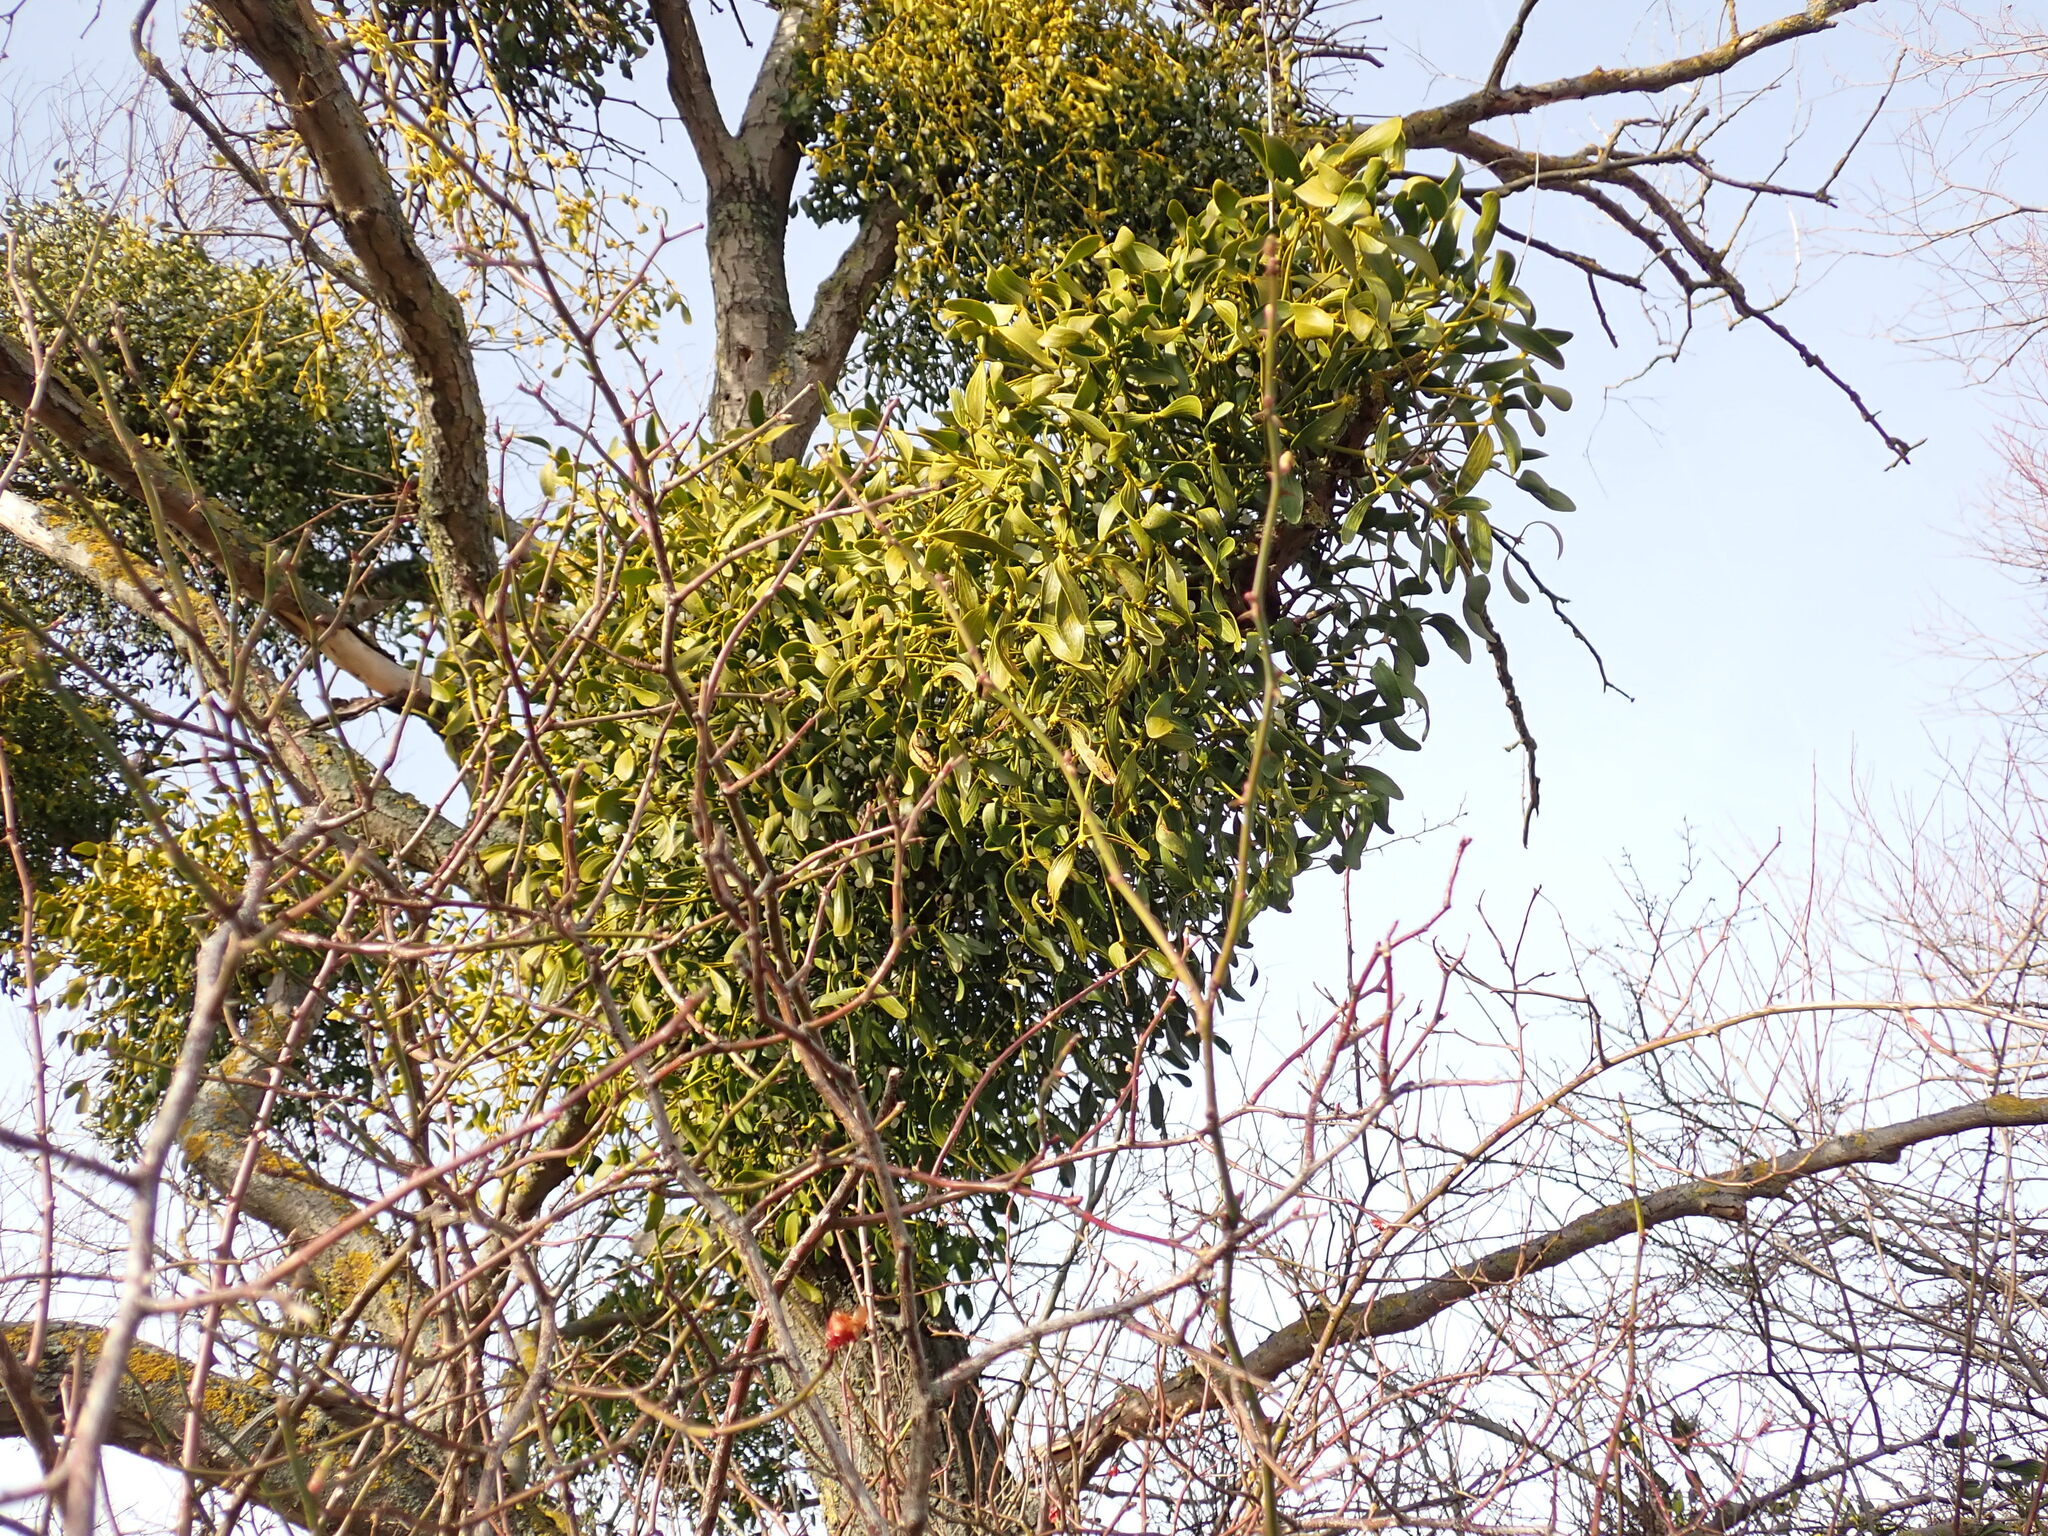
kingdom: Plantae
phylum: Tracheophyta
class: Magnoliopsida
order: Santalales
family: Viscaceae
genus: Viscum
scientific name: Viscum album
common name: Mistletoe
